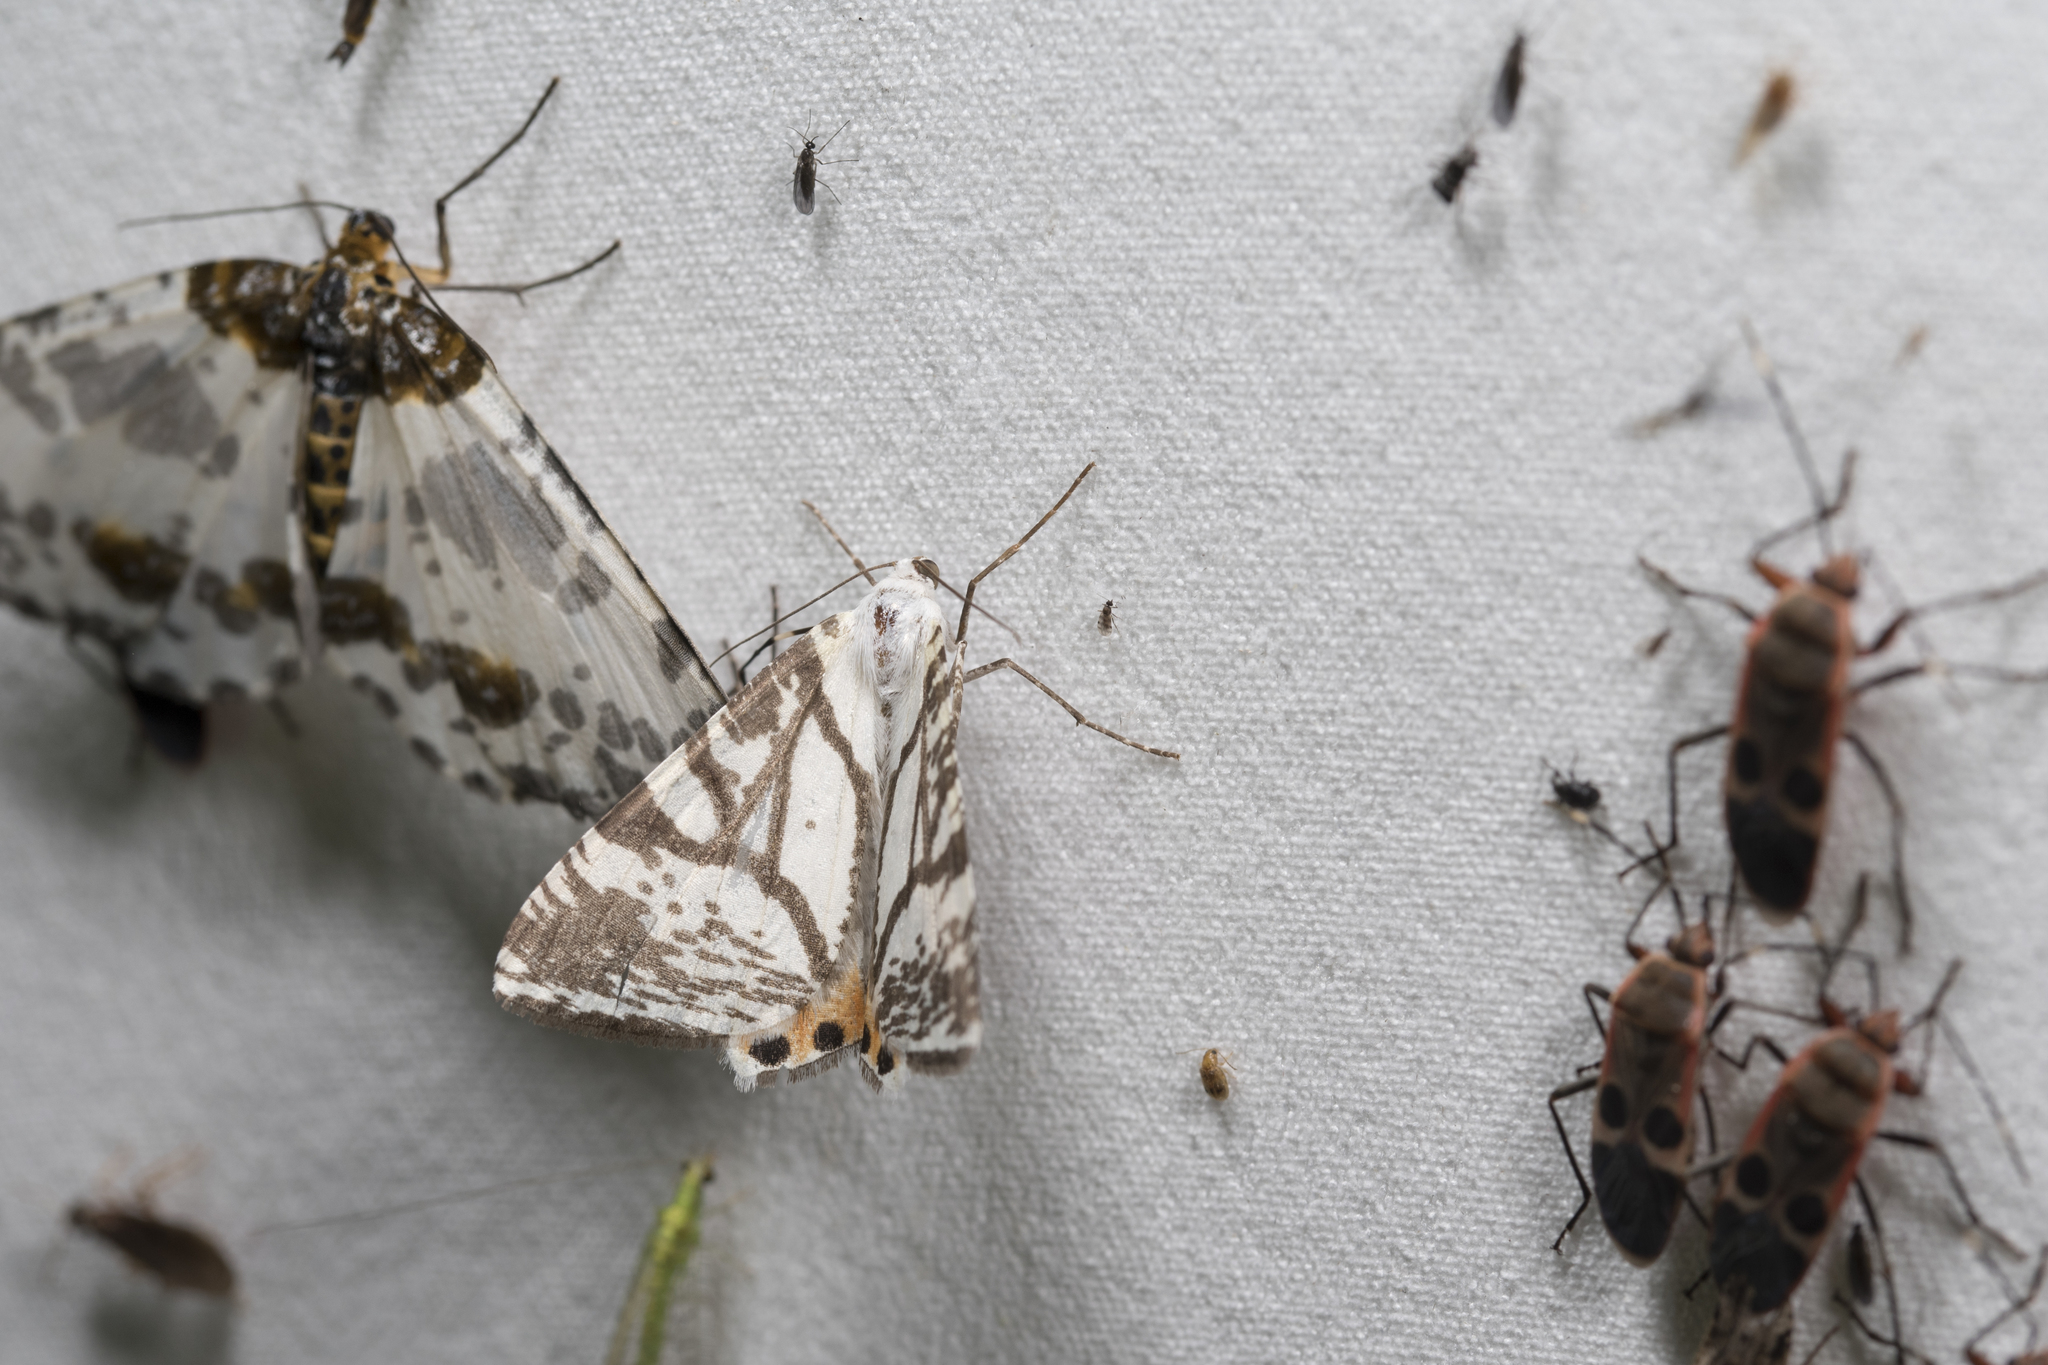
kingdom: Animalia
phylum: Arthropoda
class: Insecta
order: Lepidoptera
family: Geometridae
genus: Ourapteryx
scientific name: Ourapteryx ramosa
